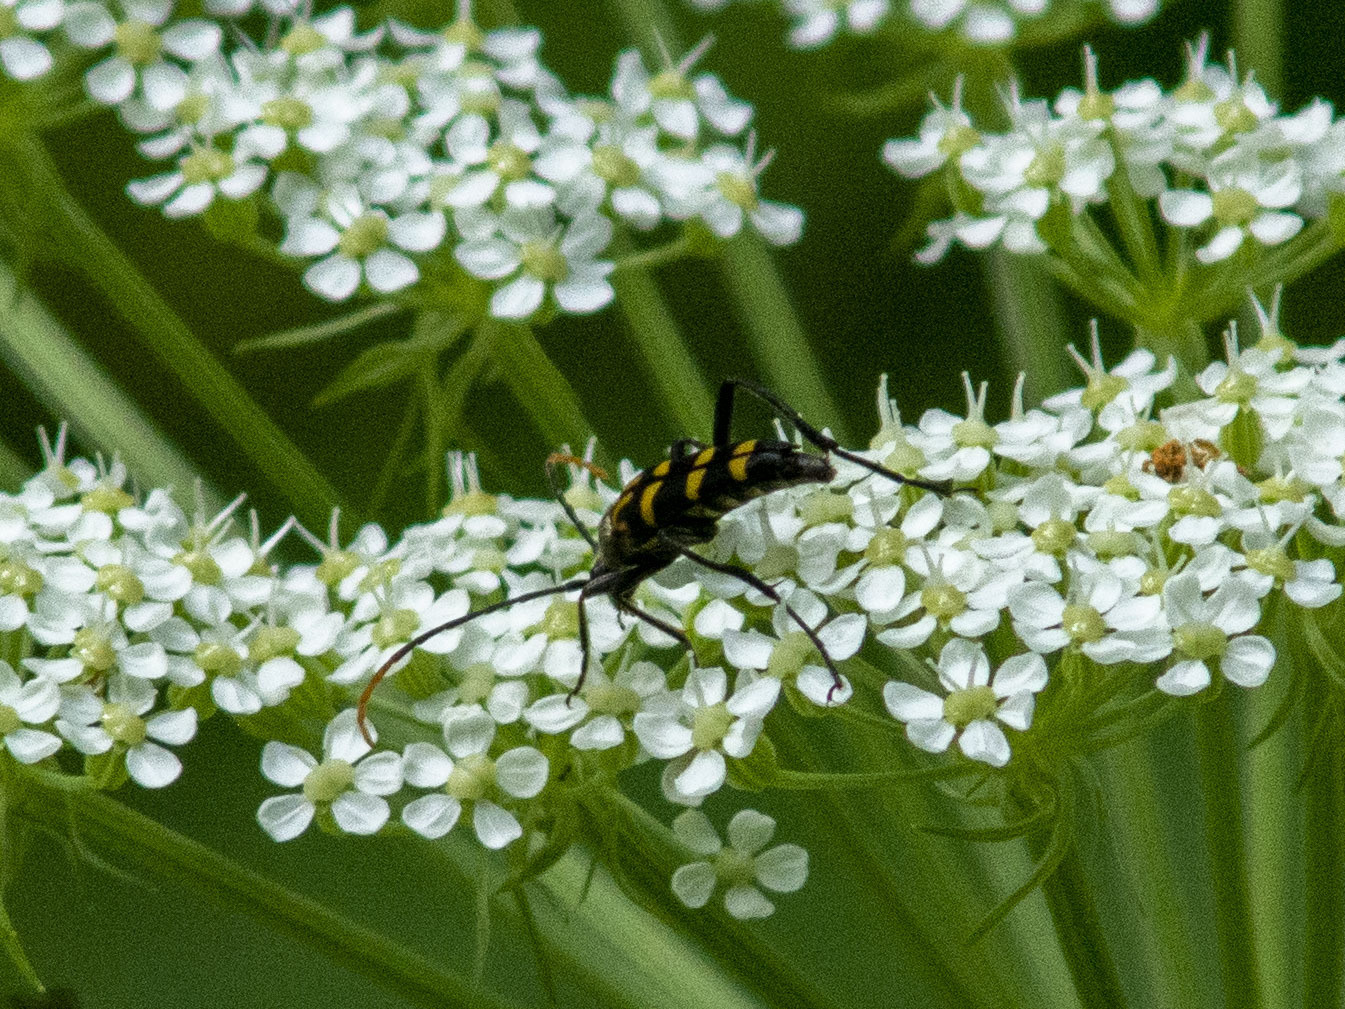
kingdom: Animalia
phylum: Arthropoda
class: Insecta
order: Coleoptera
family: Cerambycidae
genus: Leptura
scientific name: Leptura annularis
